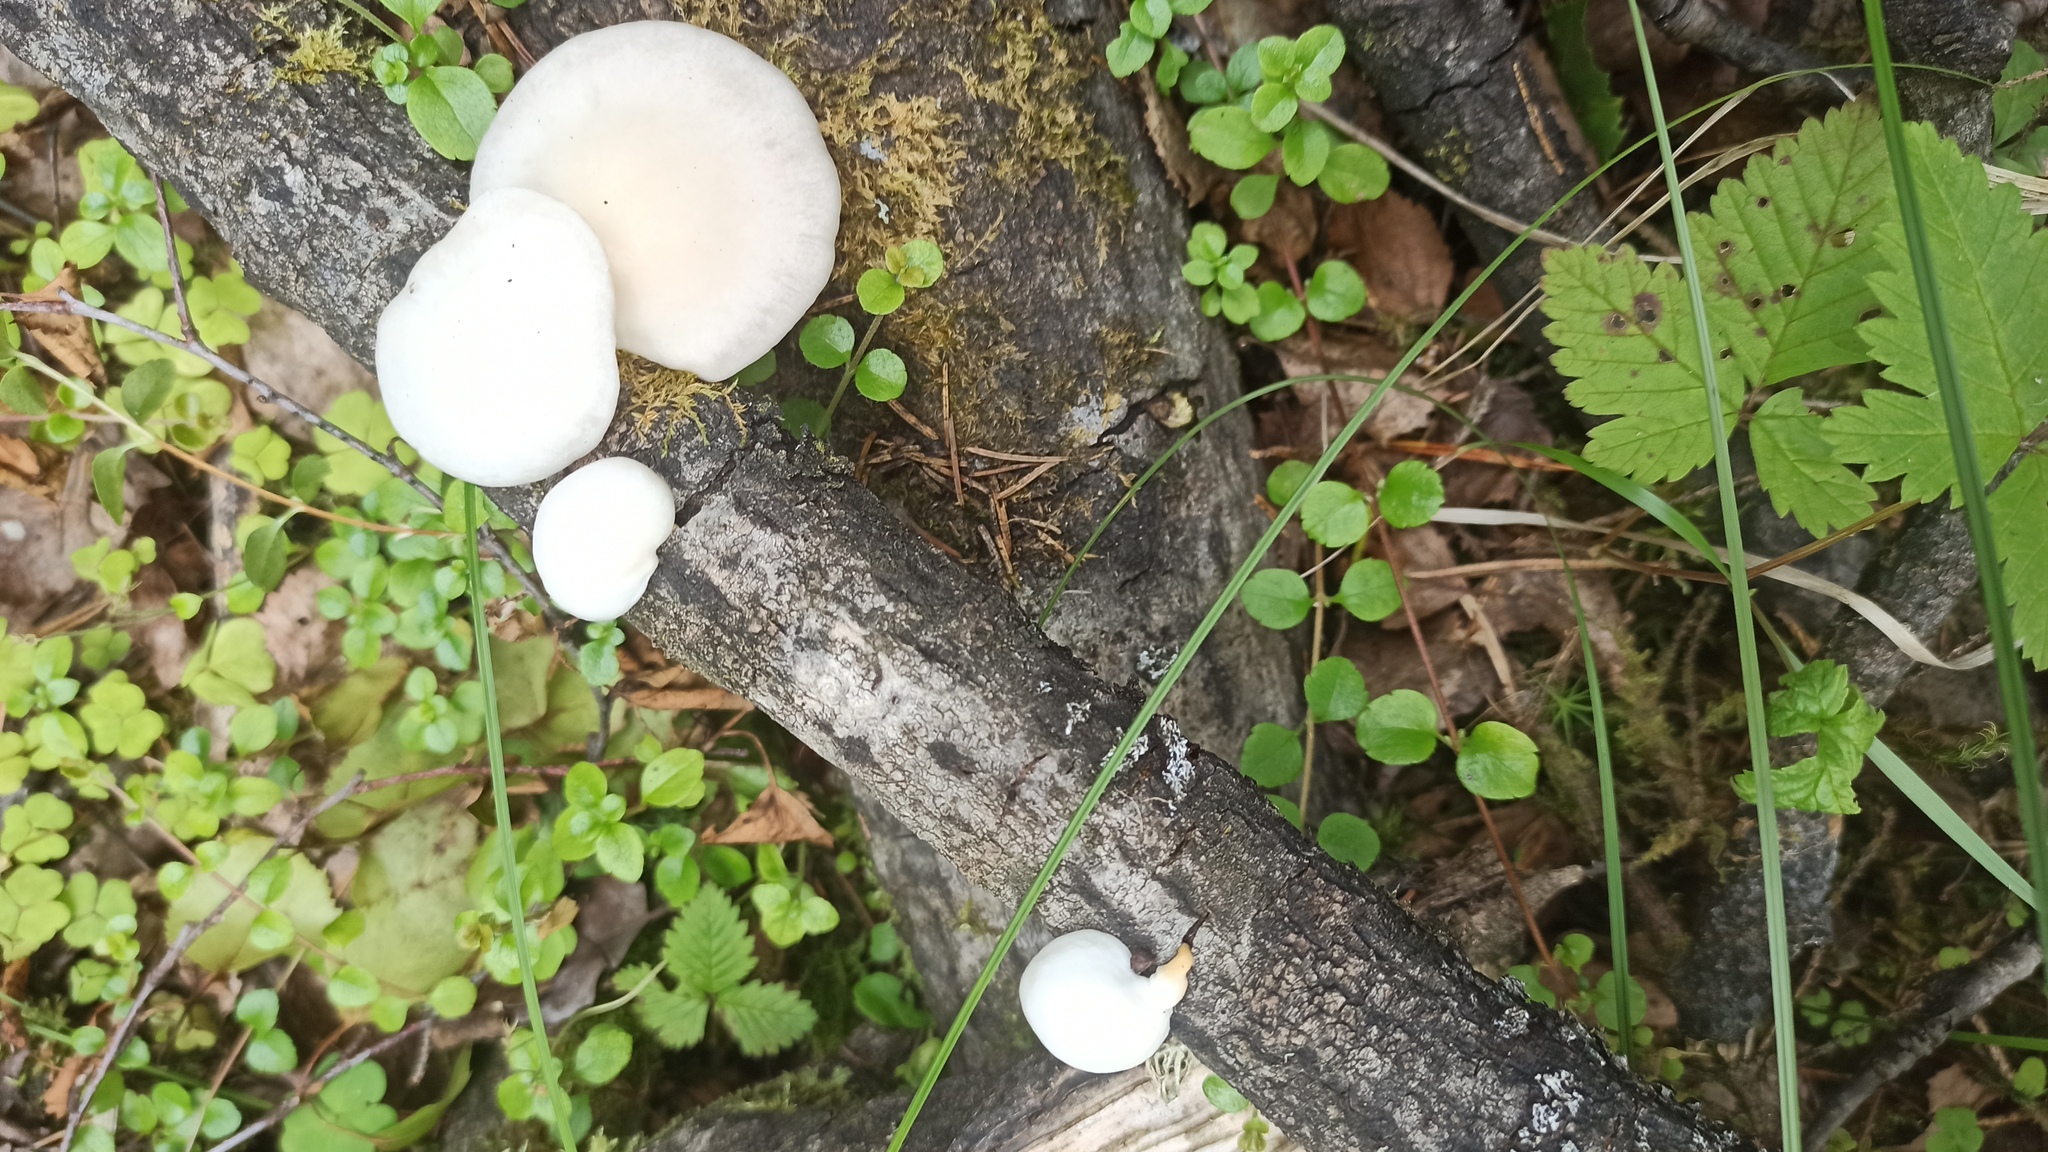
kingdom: Fungi
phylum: Basidiomycota
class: Agaricomycetes
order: Agaricales
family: Pleurotaceae
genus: Pleurotus
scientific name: Pleurotus pulmonarius
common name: Pale oyster
